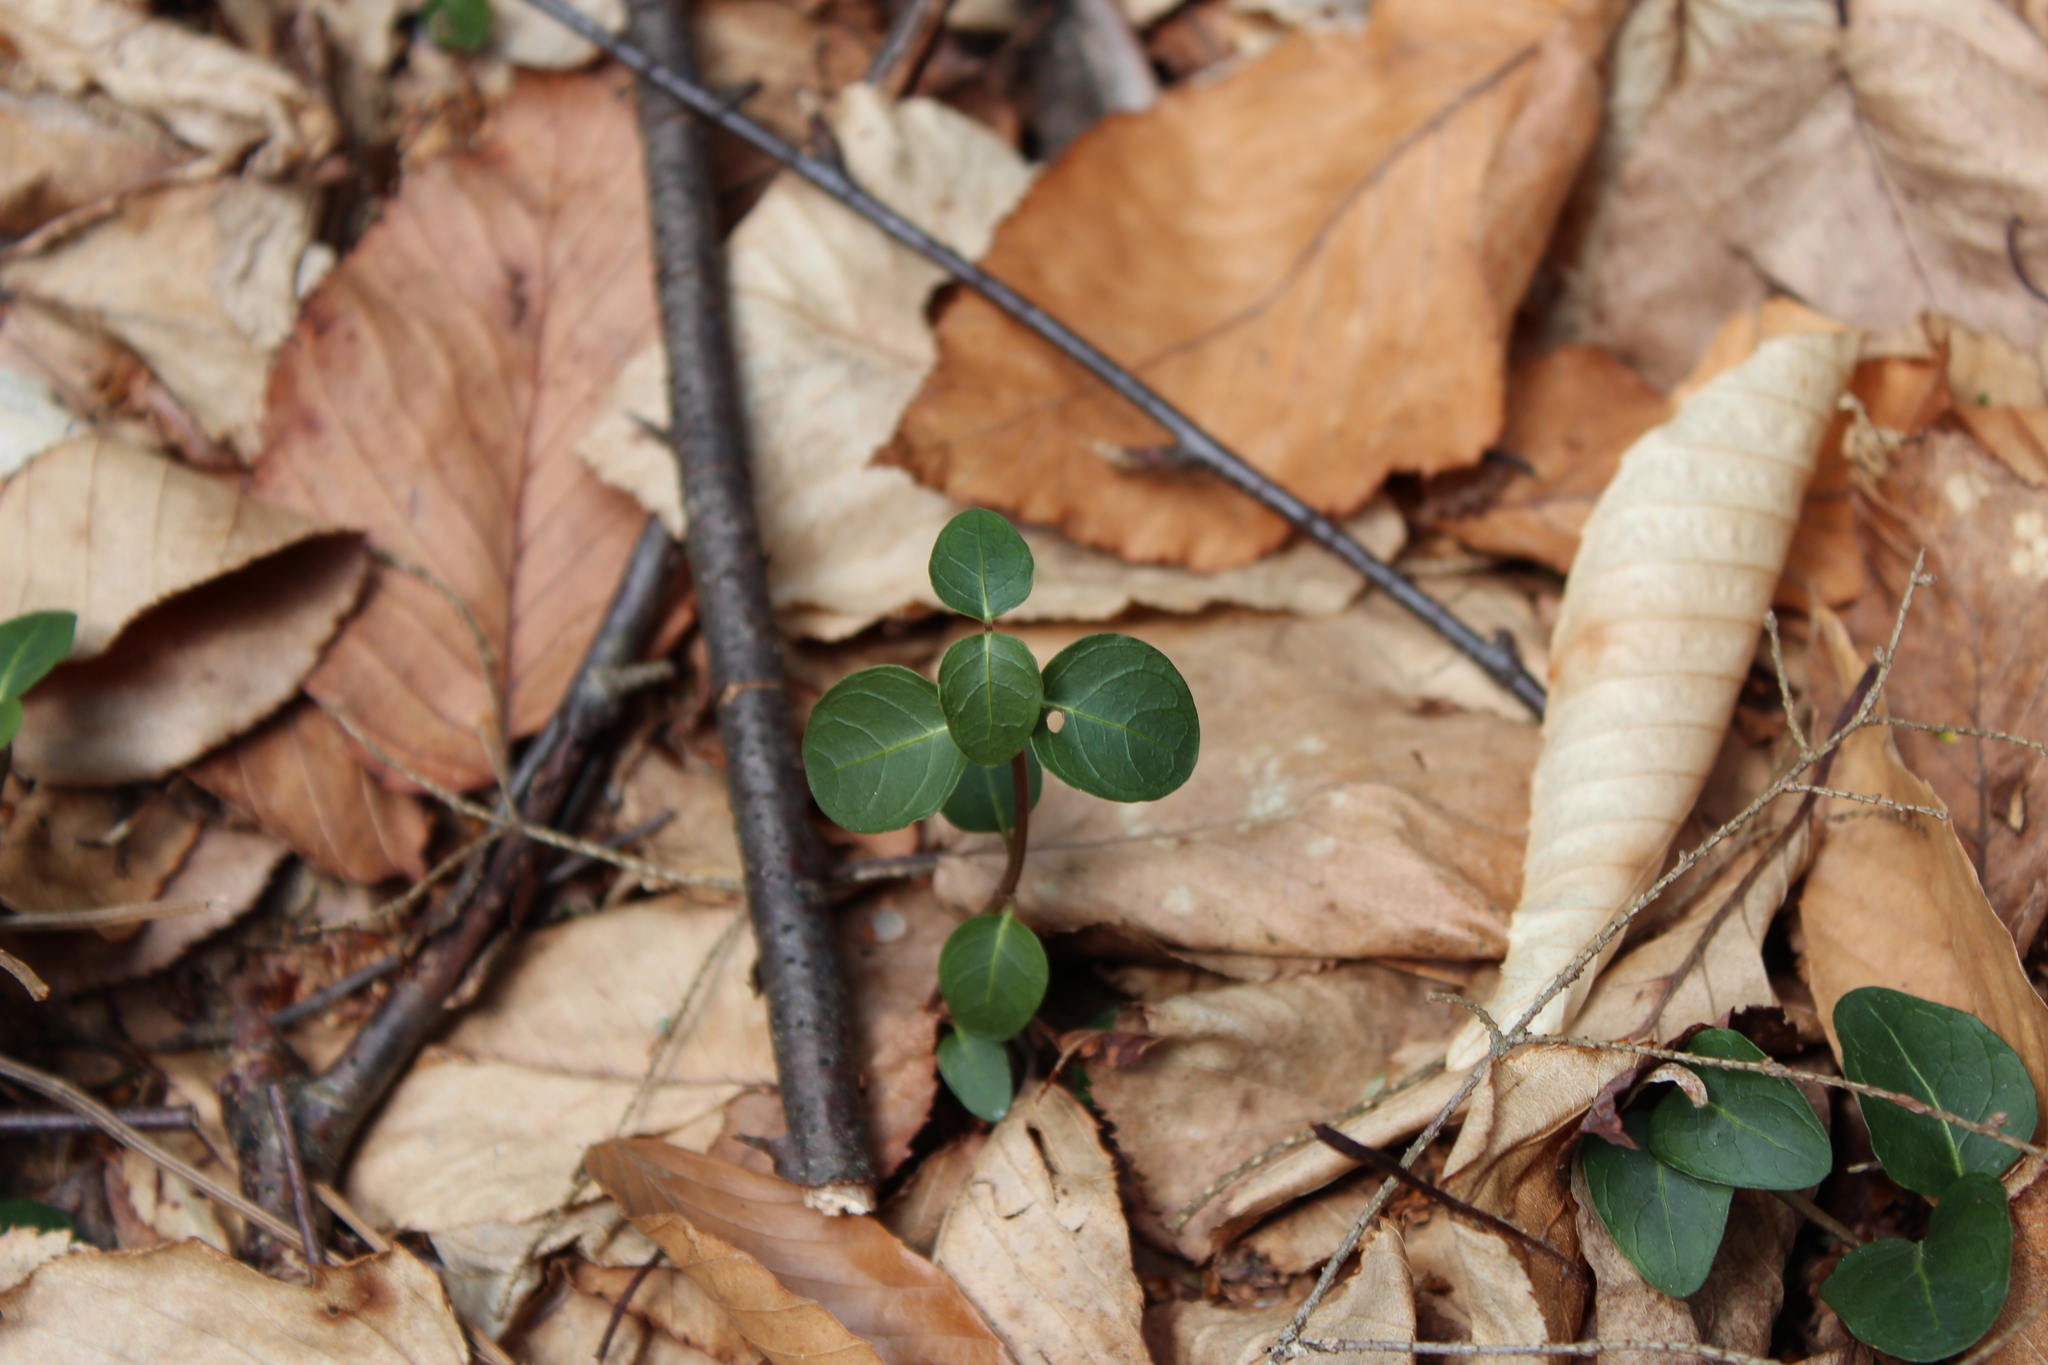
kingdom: Plantae
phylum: Tracheophyta
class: Magnoliopsida
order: Gentianales
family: Rubiaceae
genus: Mitchella
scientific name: Mitchella repens
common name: Partridge-berry
